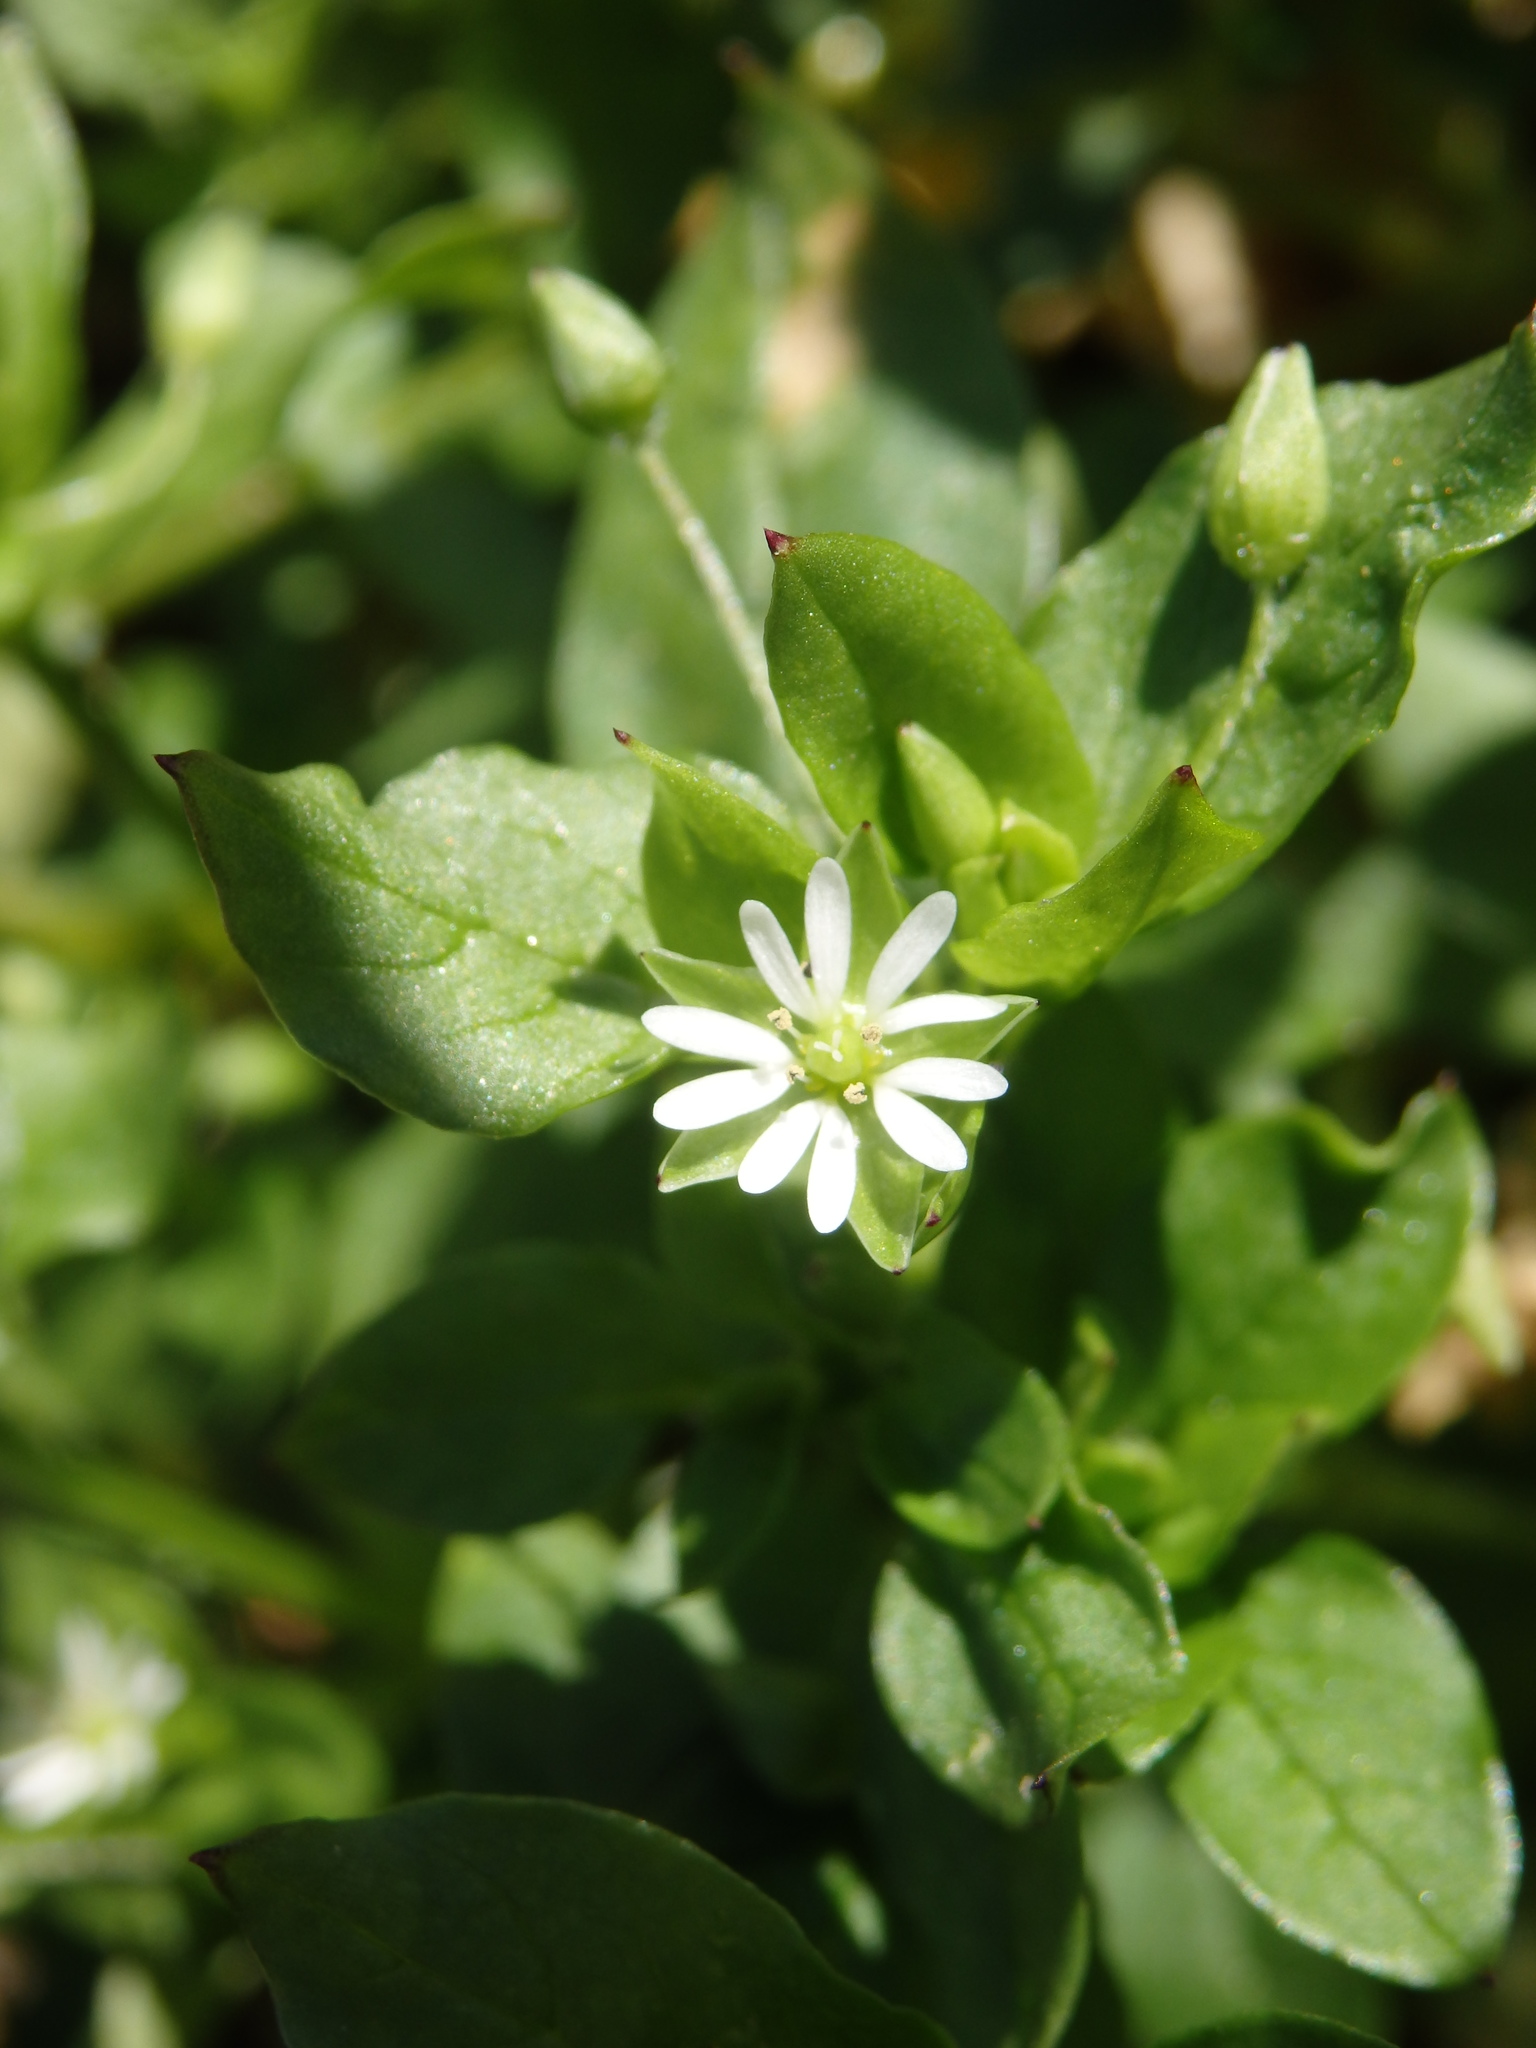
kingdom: Plantae
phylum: Tracheophyta
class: Magnoliopsida
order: Caryophyllales
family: Caryophyllaceae
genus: Stellaria
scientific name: Stellaria media
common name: Common chickweed
